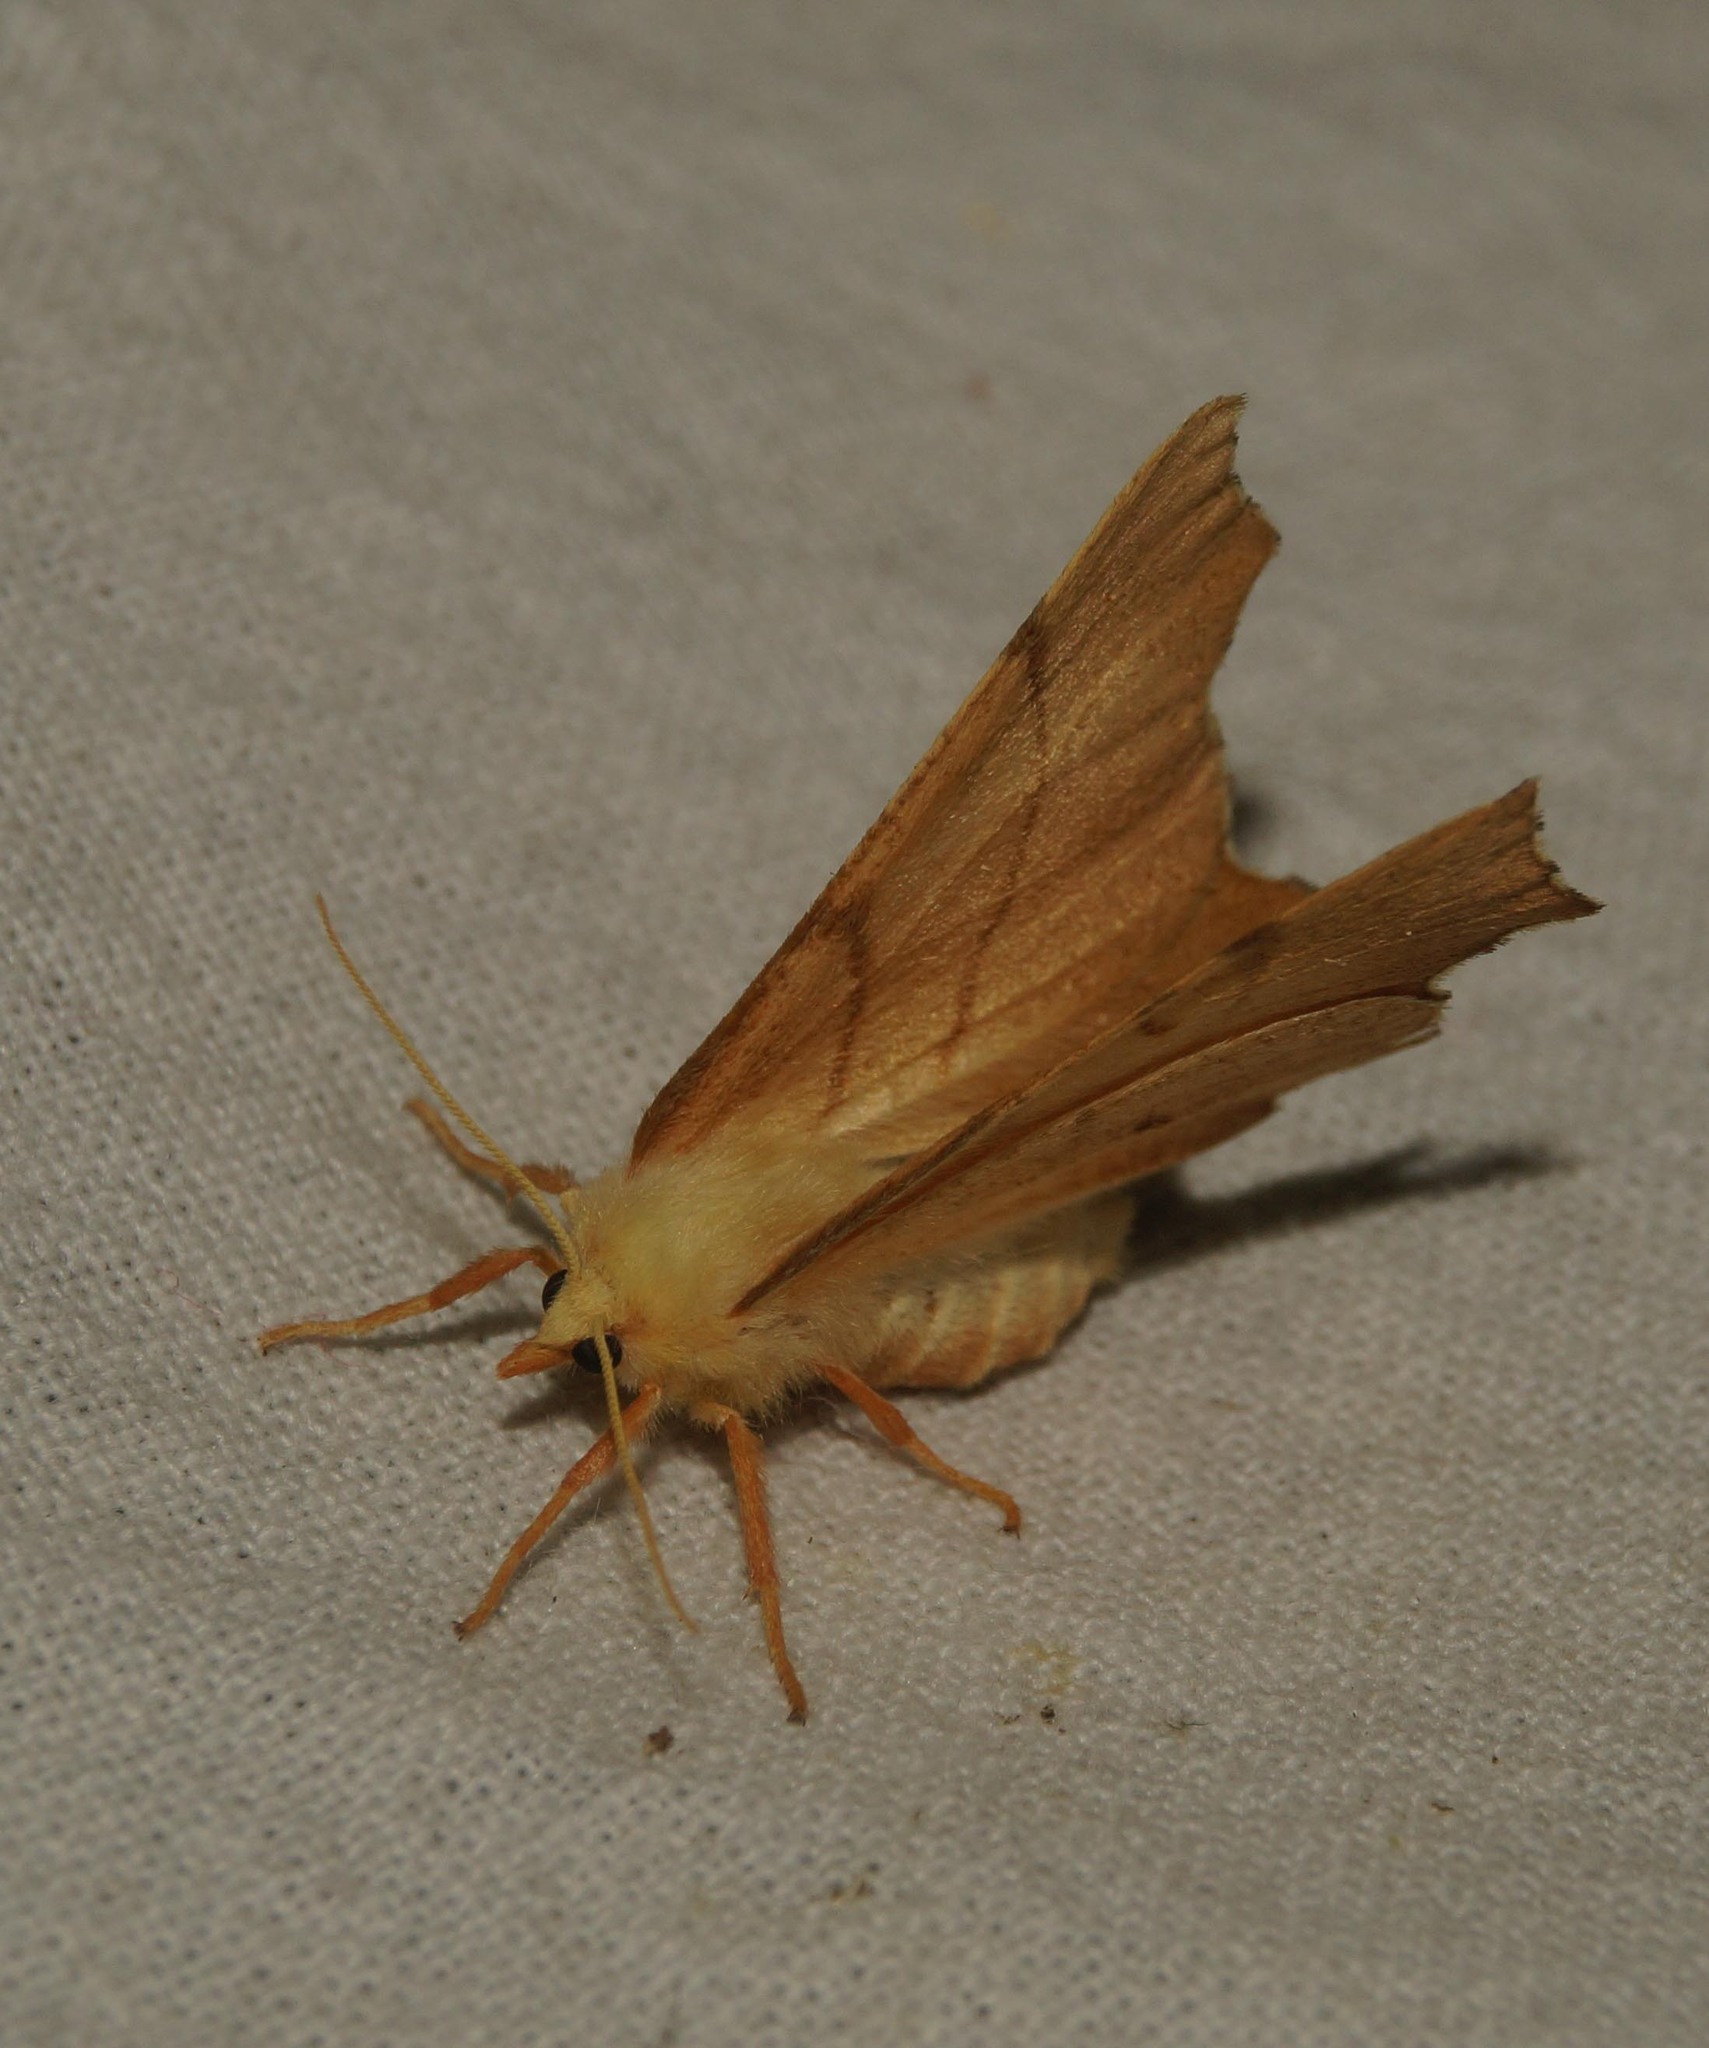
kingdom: Animalia
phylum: Arthropoda
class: Insecta
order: Lepidoptera
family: Geometridae
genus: Ennomos
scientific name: Ennomos erosaria
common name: September thorn
